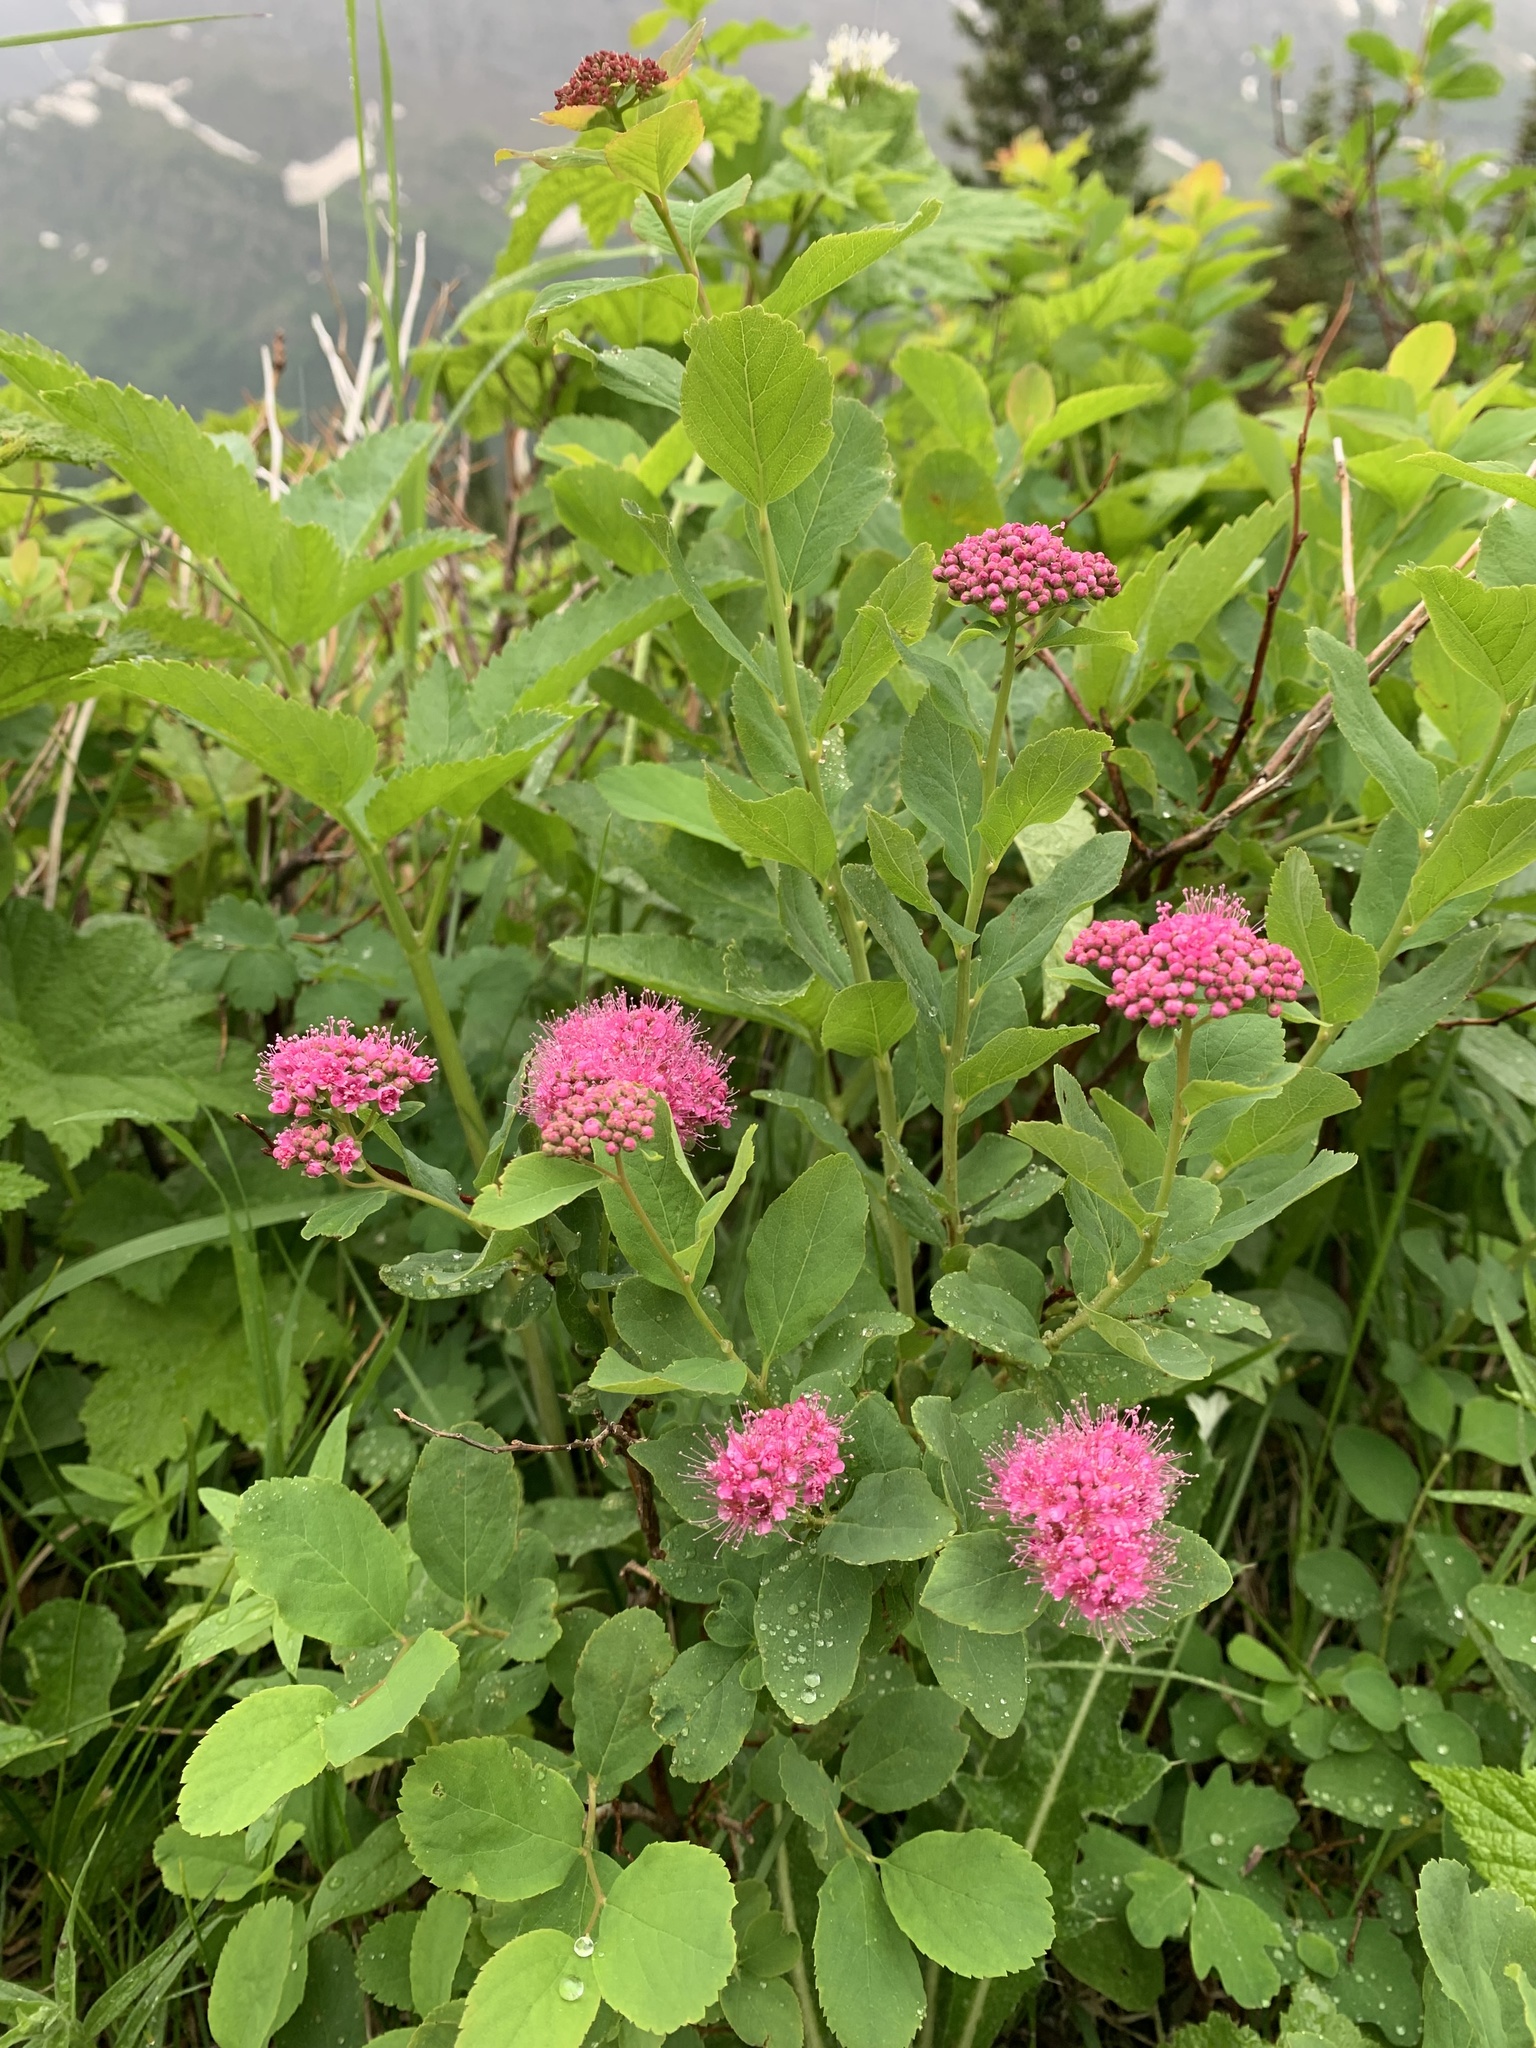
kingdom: Plantae
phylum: Tracheophyta
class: Magnoliopsida
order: Rosales
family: Rosaceae
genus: Spiraea
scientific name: Spiraea splendens
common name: Subalpine meadowsweet
